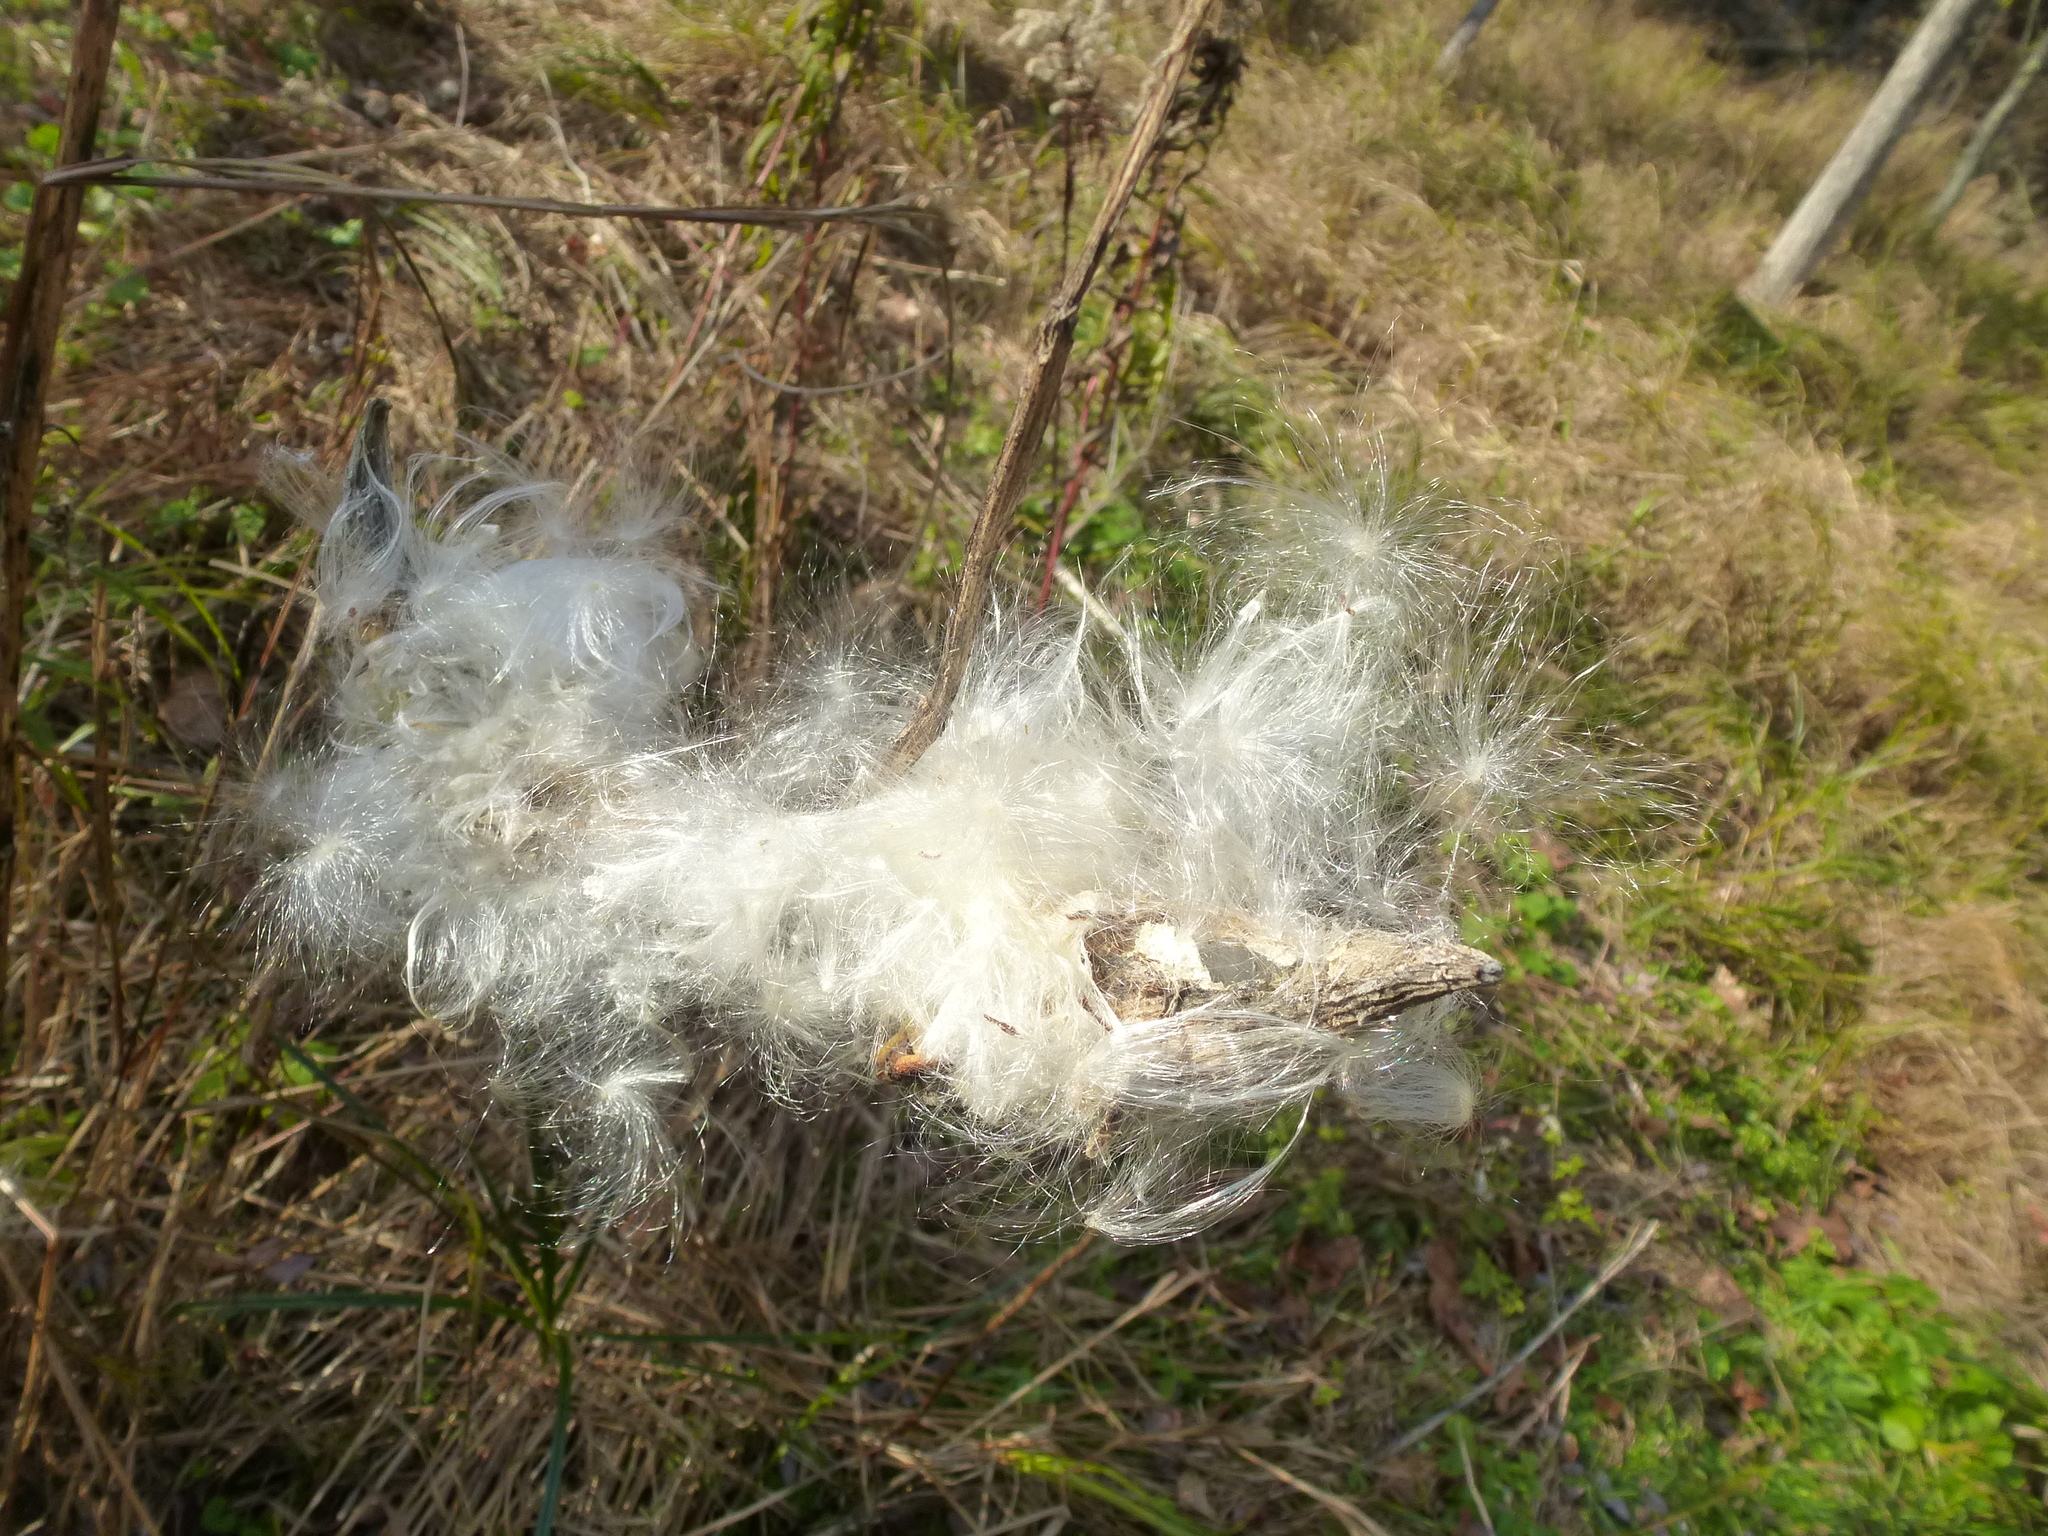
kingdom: Plantae
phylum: Tracheophyta
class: Magnoliopsida
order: Gentianales
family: Apocynaceae
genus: Asclepias
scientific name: Asclepias syriaca
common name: Common milkweed
